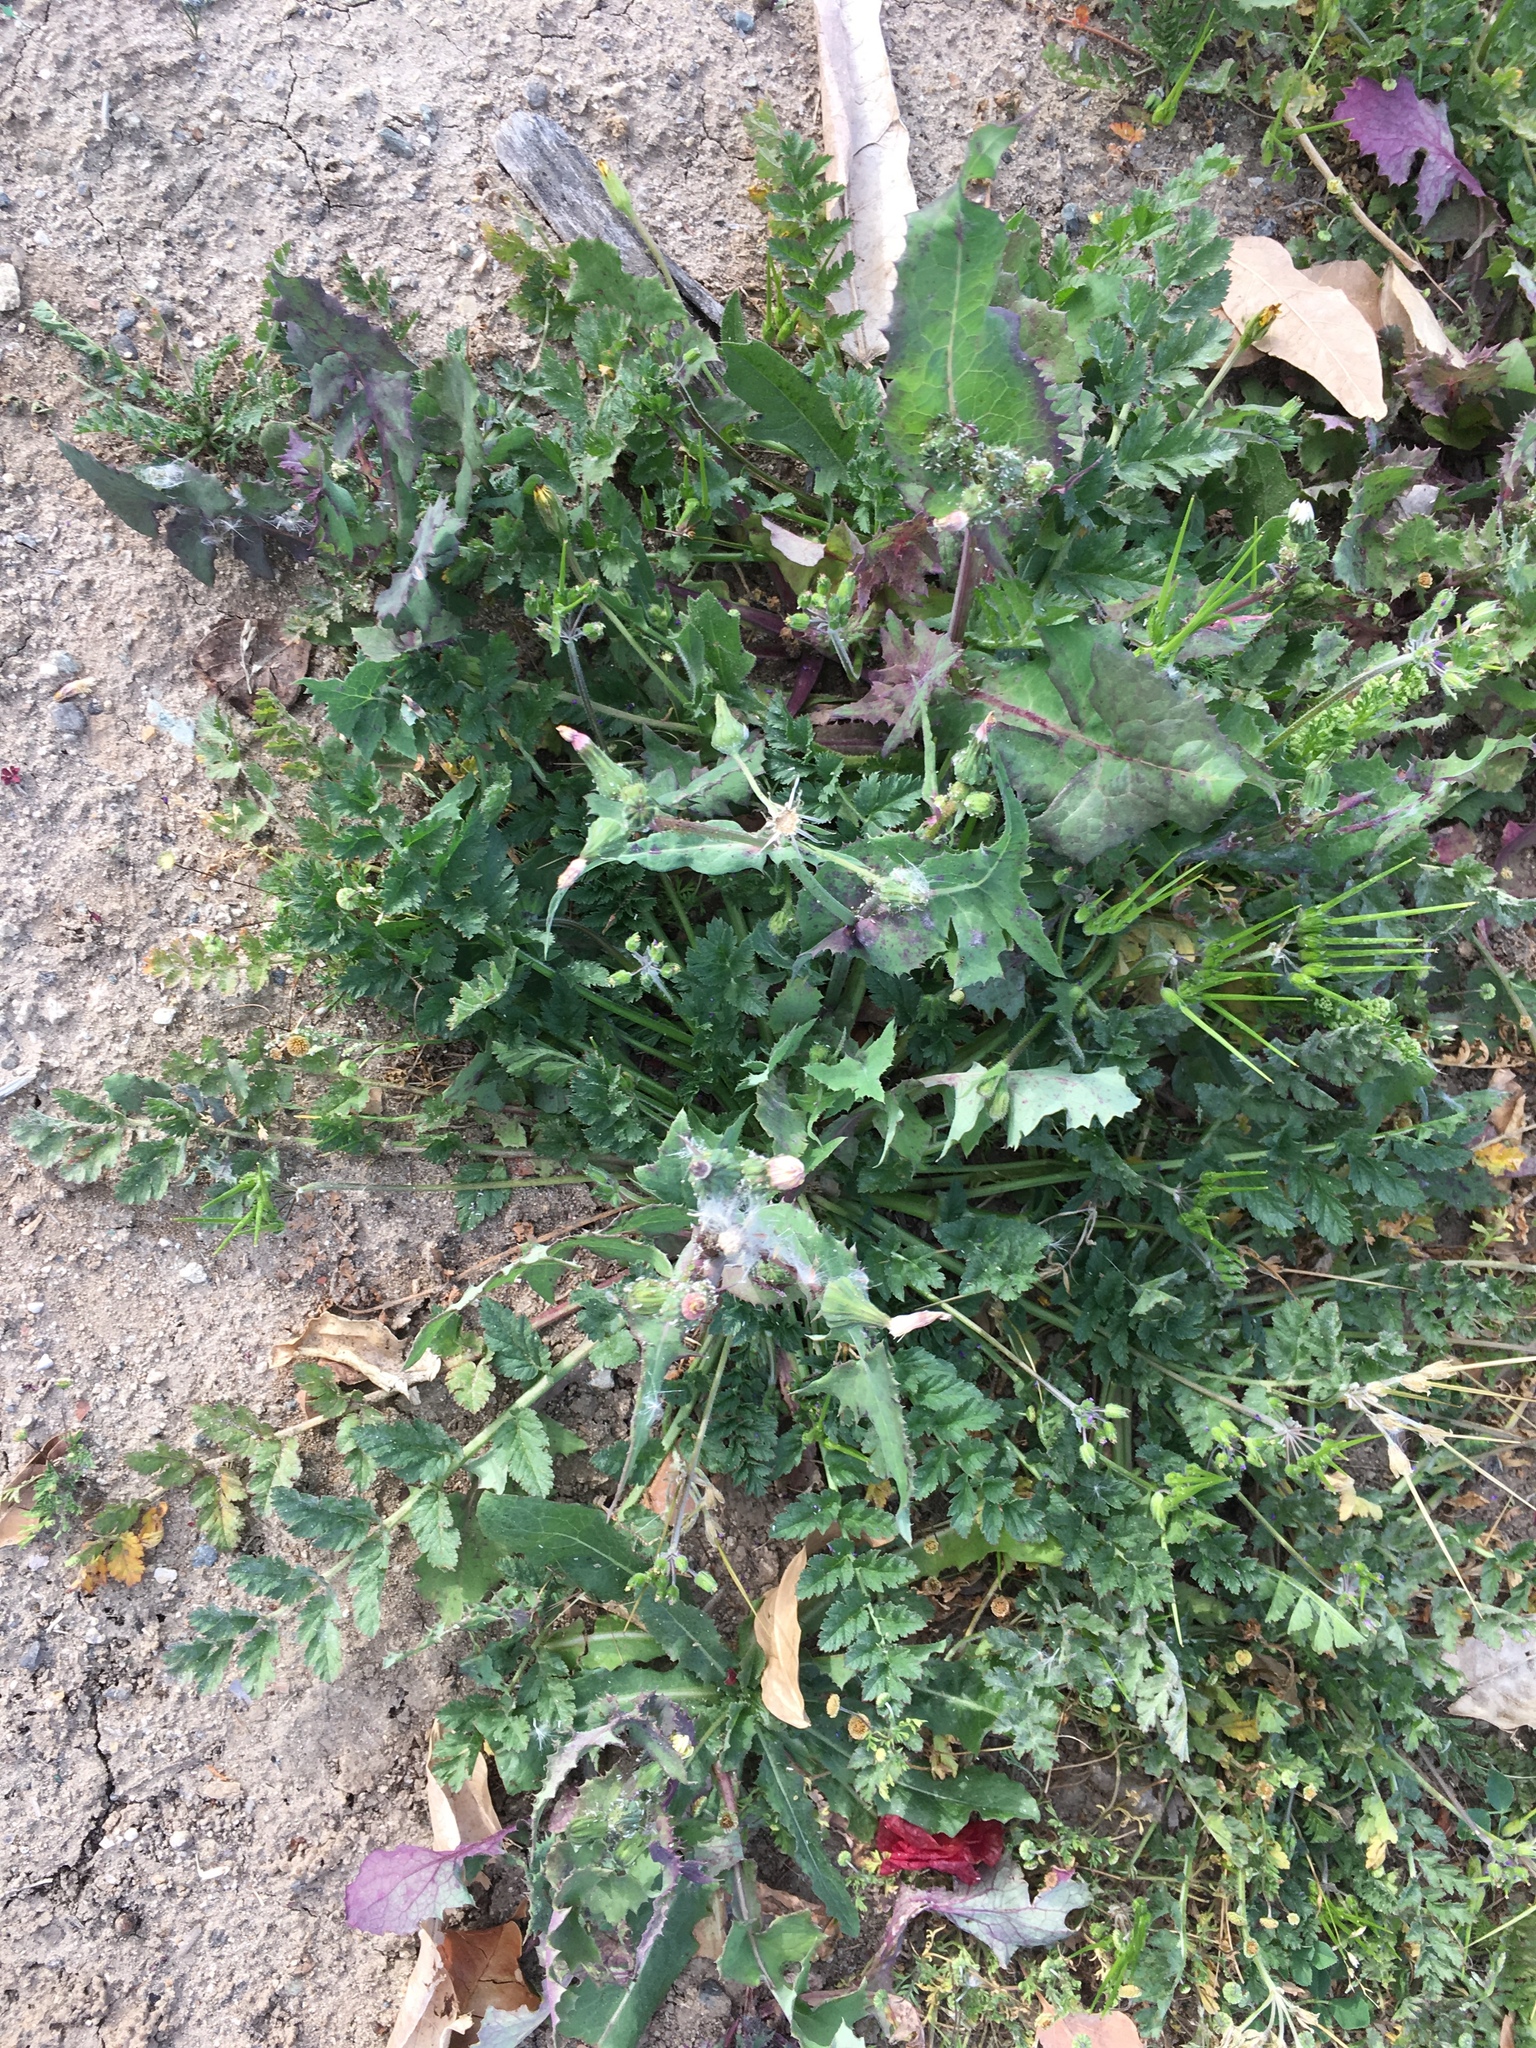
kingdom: Plantae
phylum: Tracheophyta
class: Magnoliopsida
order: Geraniales
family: Geraniaceae
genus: Erodium
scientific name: Erodium moschatum
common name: Musk stork's-bill
